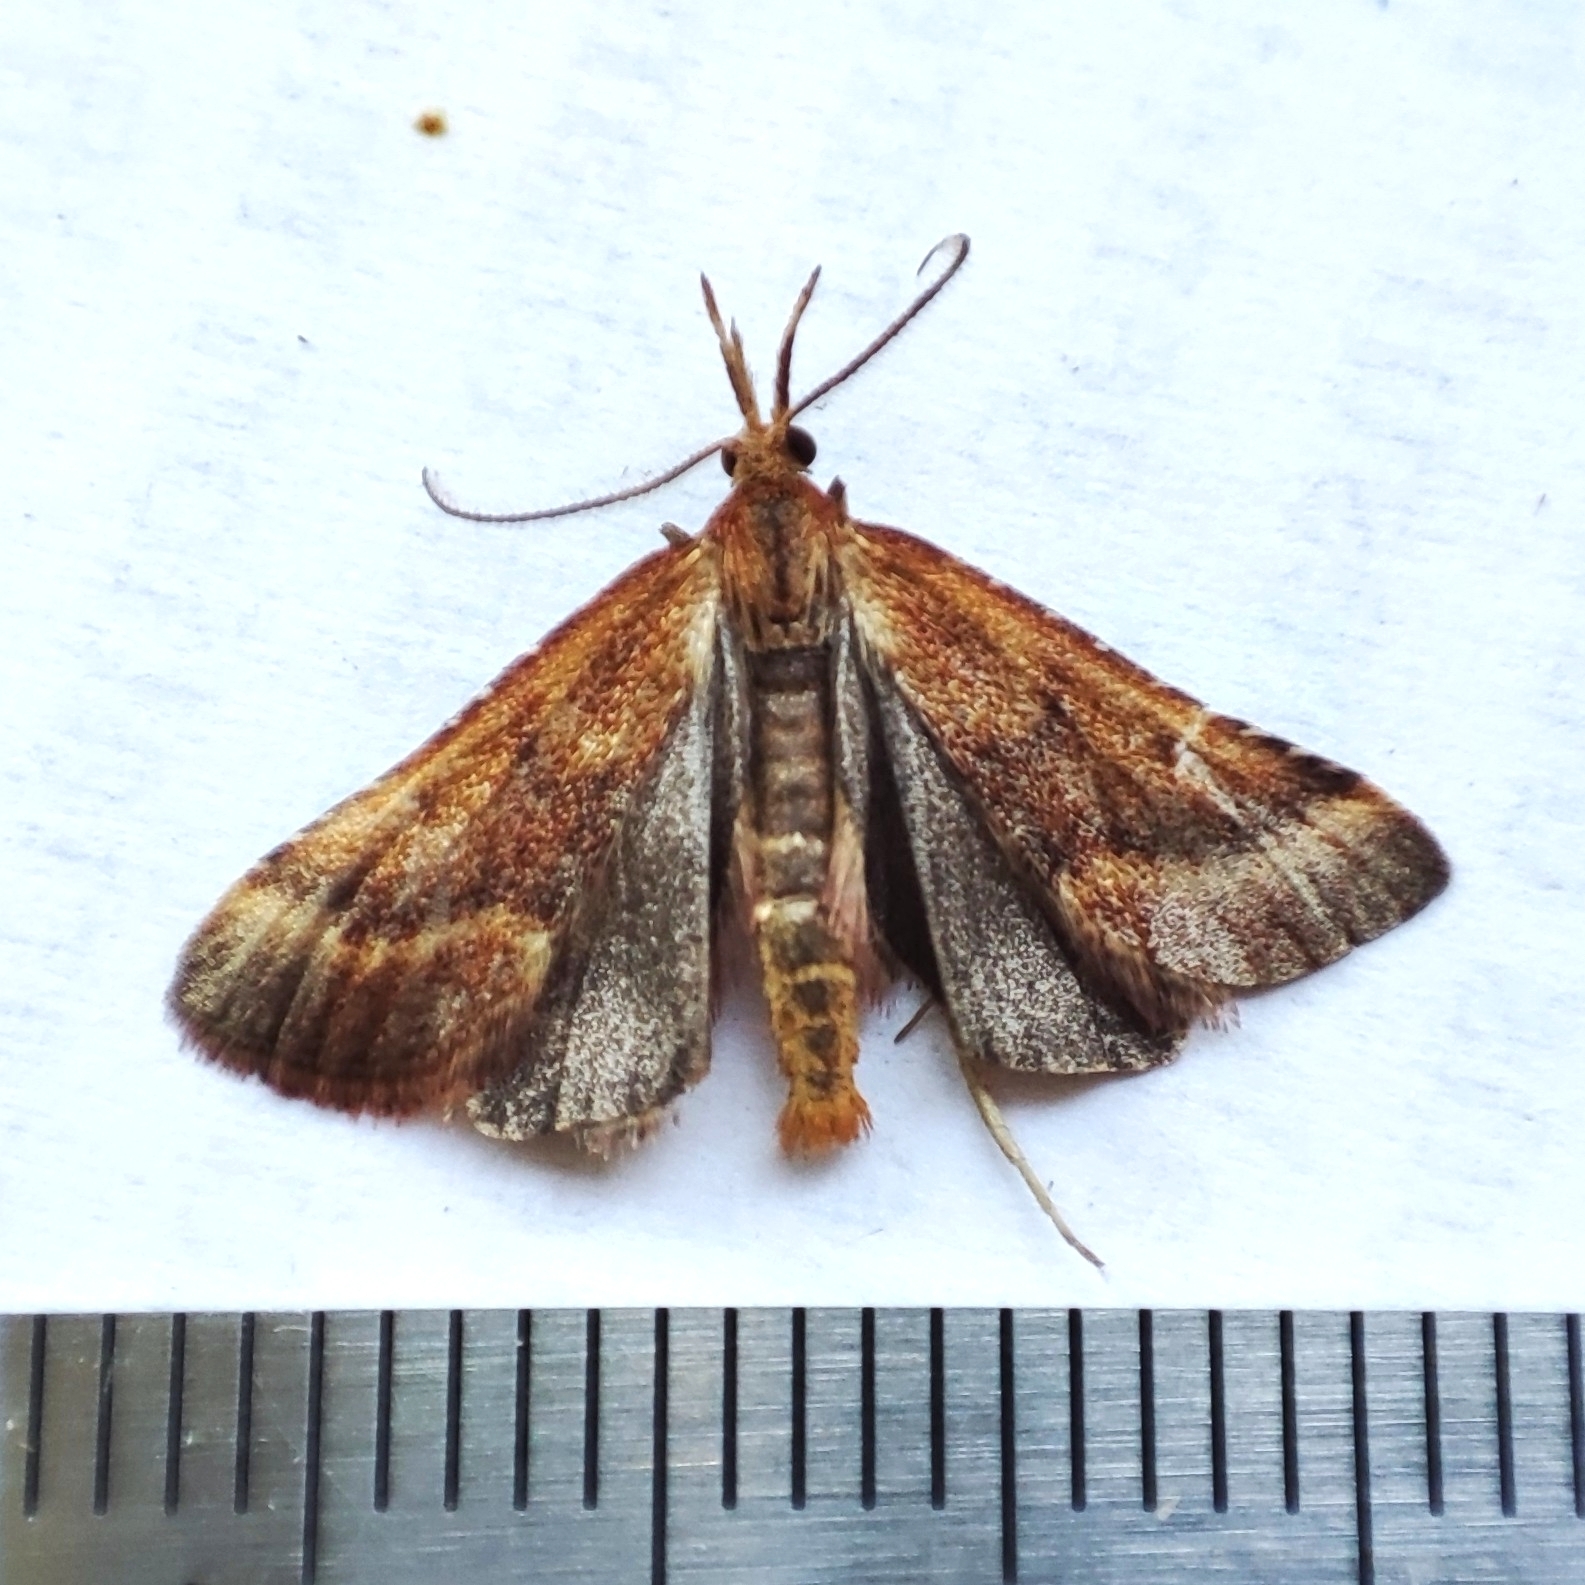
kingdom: Animalia
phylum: Arthropoda
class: Insecta
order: Lepidoptera
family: Pyralidae
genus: Synaphe
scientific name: Synaphe punctalis
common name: Long-legged tabby
